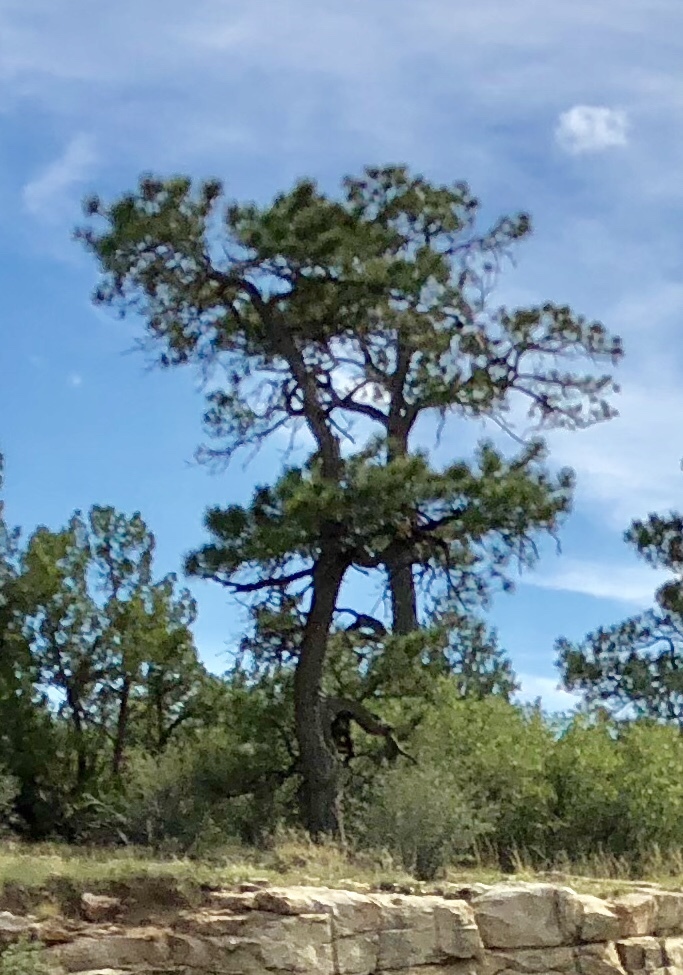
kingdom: Plantae
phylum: Tracheophyta
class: Pinopsida
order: Pinales
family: Pinaceae
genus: Pinus
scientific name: Pinus ponderosa
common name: Western yellow-pine
